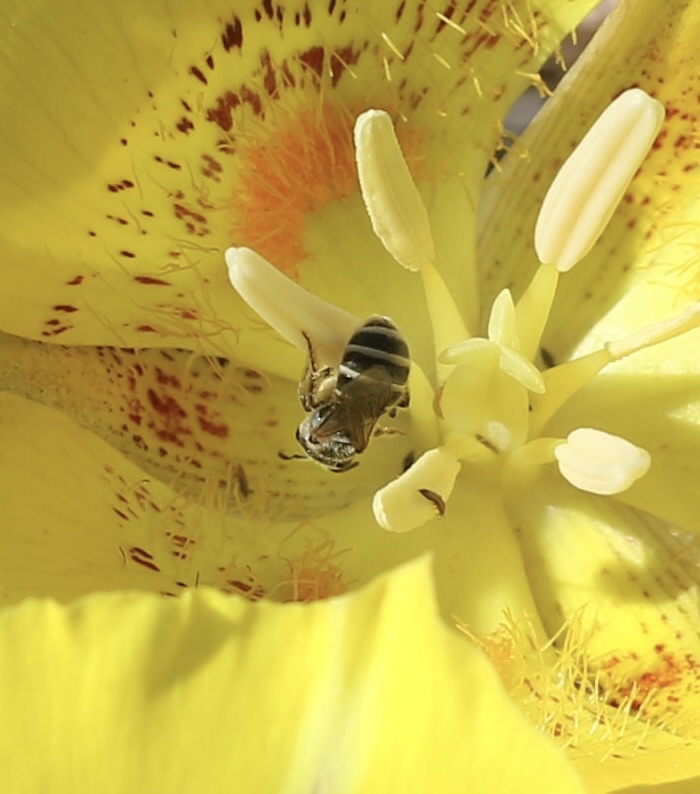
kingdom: Animalia
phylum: Arthropoda
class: Insecta
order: Hymenoptera
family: Halictidae
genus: Halictus
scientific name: Halictus tripartitus
